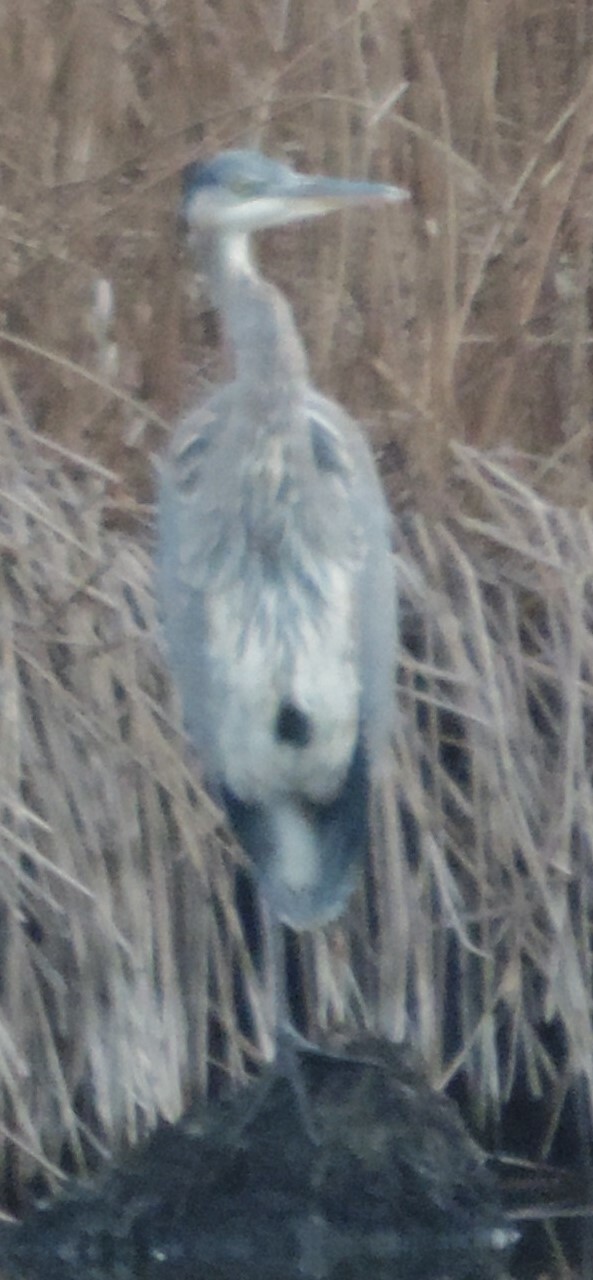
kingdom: Animalia
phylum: Chordata
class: Aves
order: Pelecaniformes
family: Ardeidae
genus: Ardea
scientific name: Ardea herodias
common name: Great blue heron
